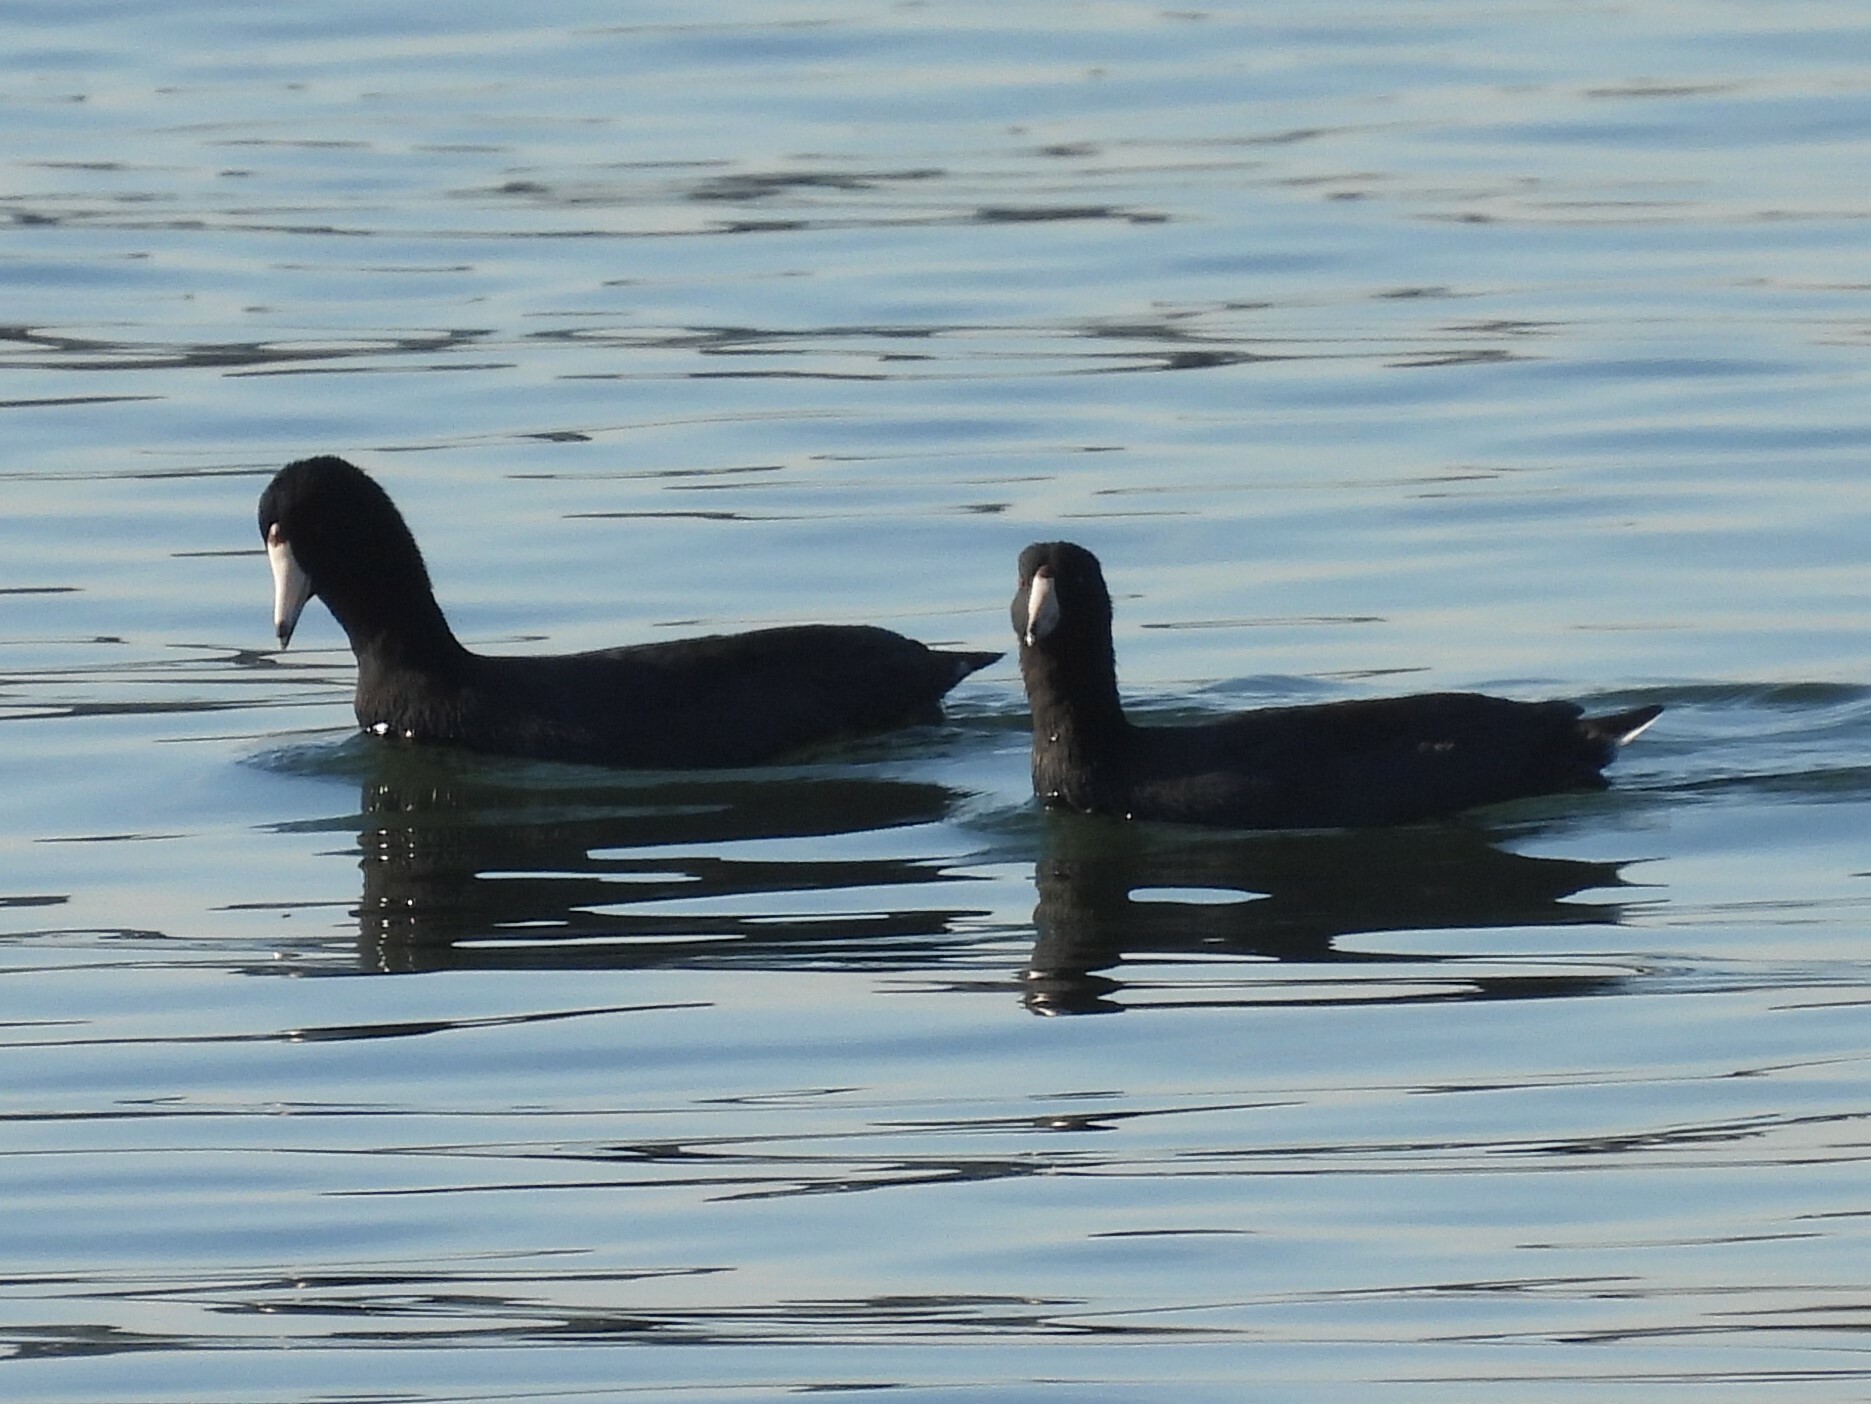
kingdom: Animalia
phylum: Chordata
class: Aves
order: Gruiformes
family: Rallidae
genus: Fulica
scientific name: Fulica americana
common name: American coot
